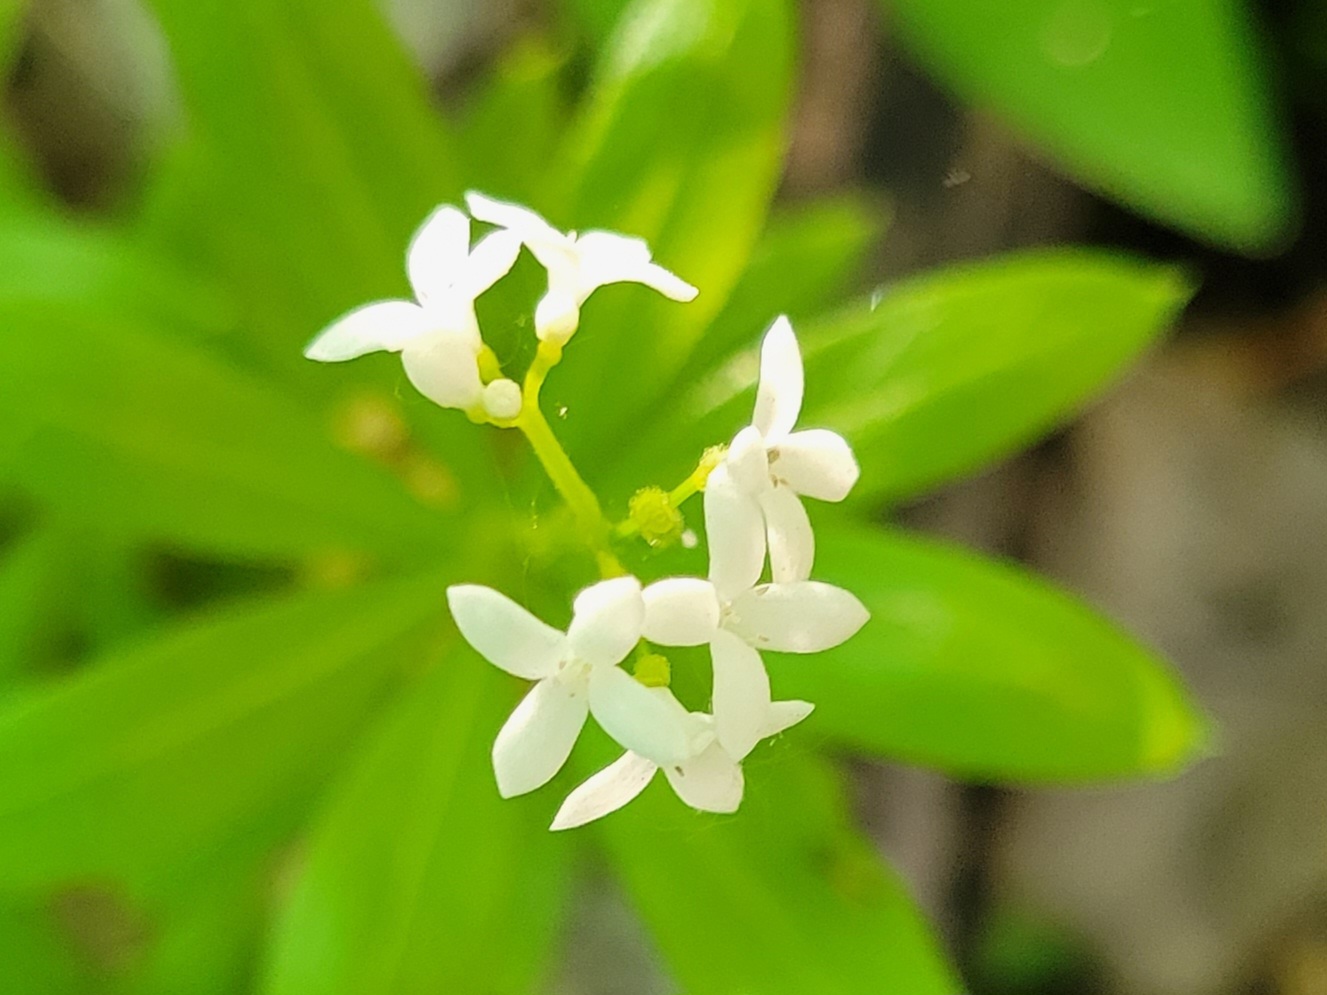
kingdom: Plantae
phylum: Tracheophyta
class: Magnoliopsida
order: Gentianales
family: Rubiaceae
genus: Galium
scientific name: Galium odoratum
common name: Sweet woodruff
